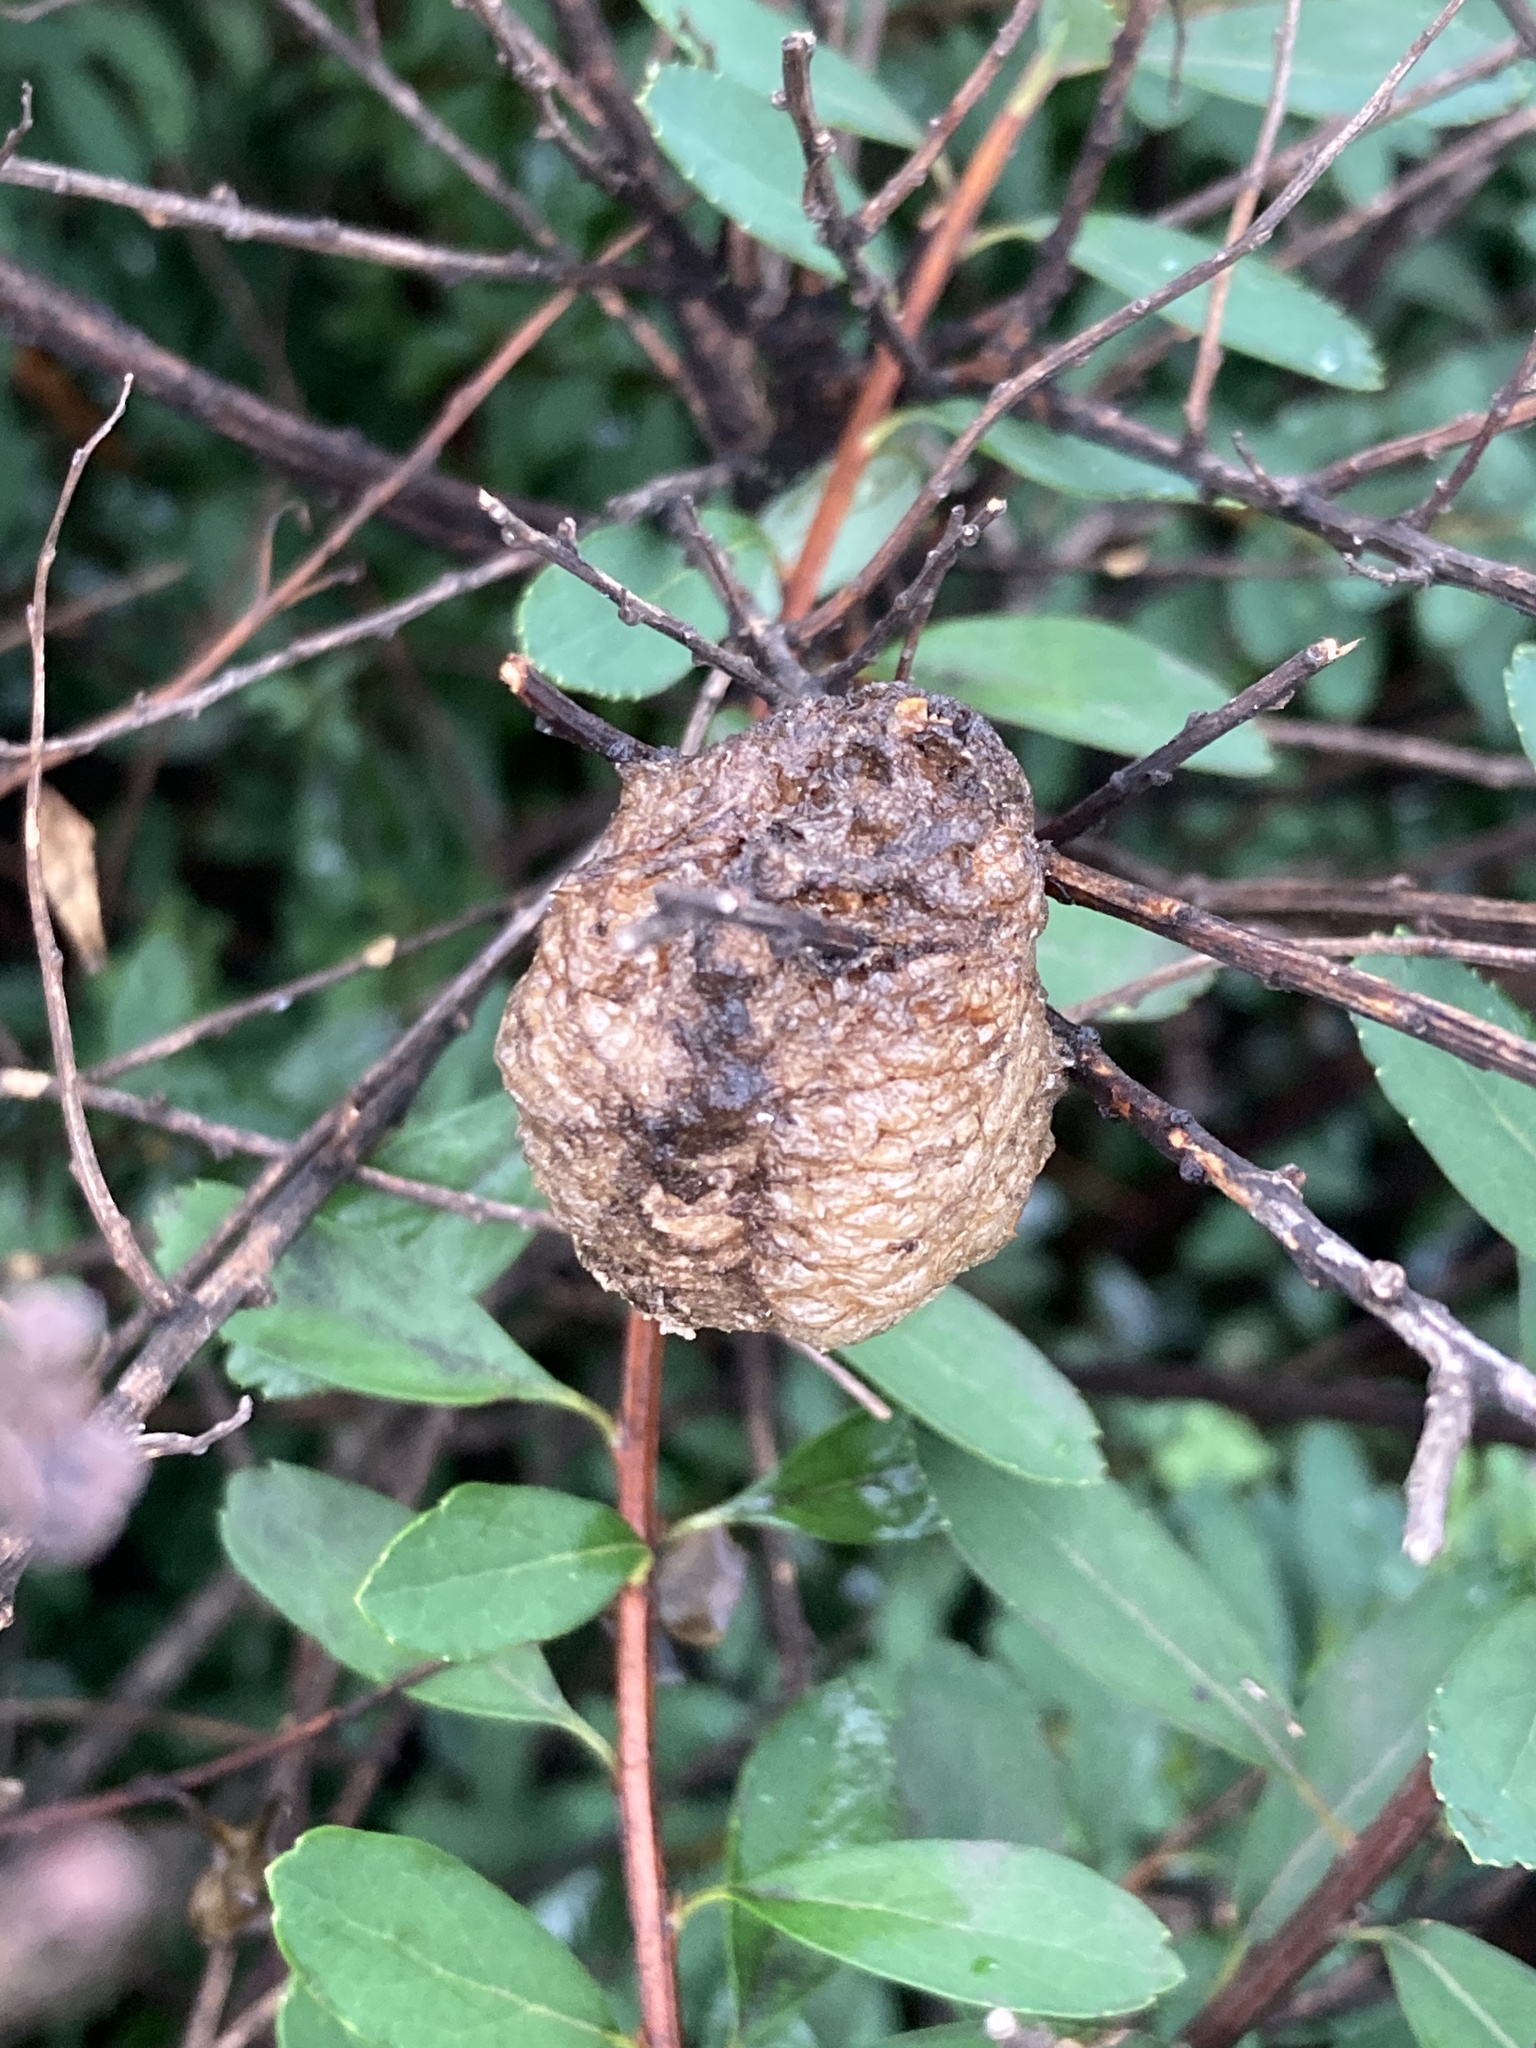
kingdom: Animalia
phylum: Arthropoda
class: Insecta
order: Mantodea
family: Mantidae
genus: Tenodera
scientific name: Tenodera sinensis
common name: Chinese mantis
